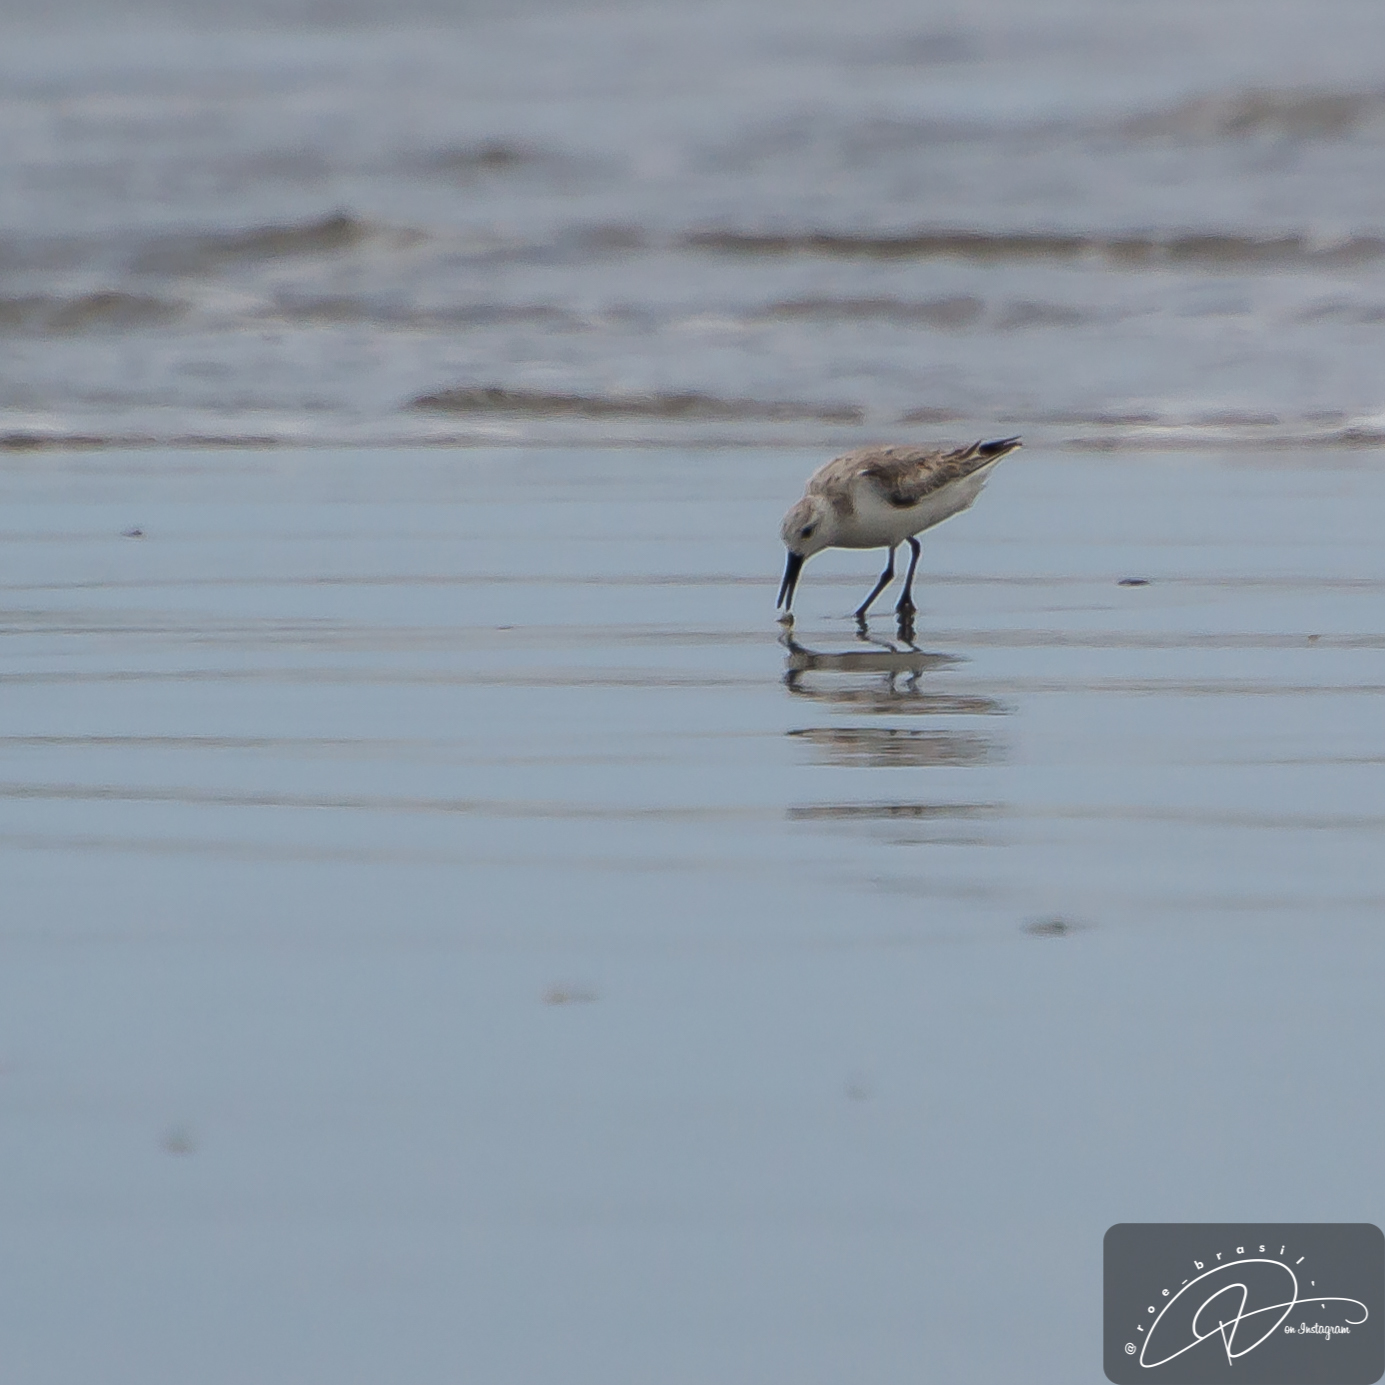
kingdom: Animalia
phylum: Chordata
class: Aves
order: Charadriiformes
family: Scolopacidae
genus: Calidris
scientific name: Calidris alba
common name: Sanderling
